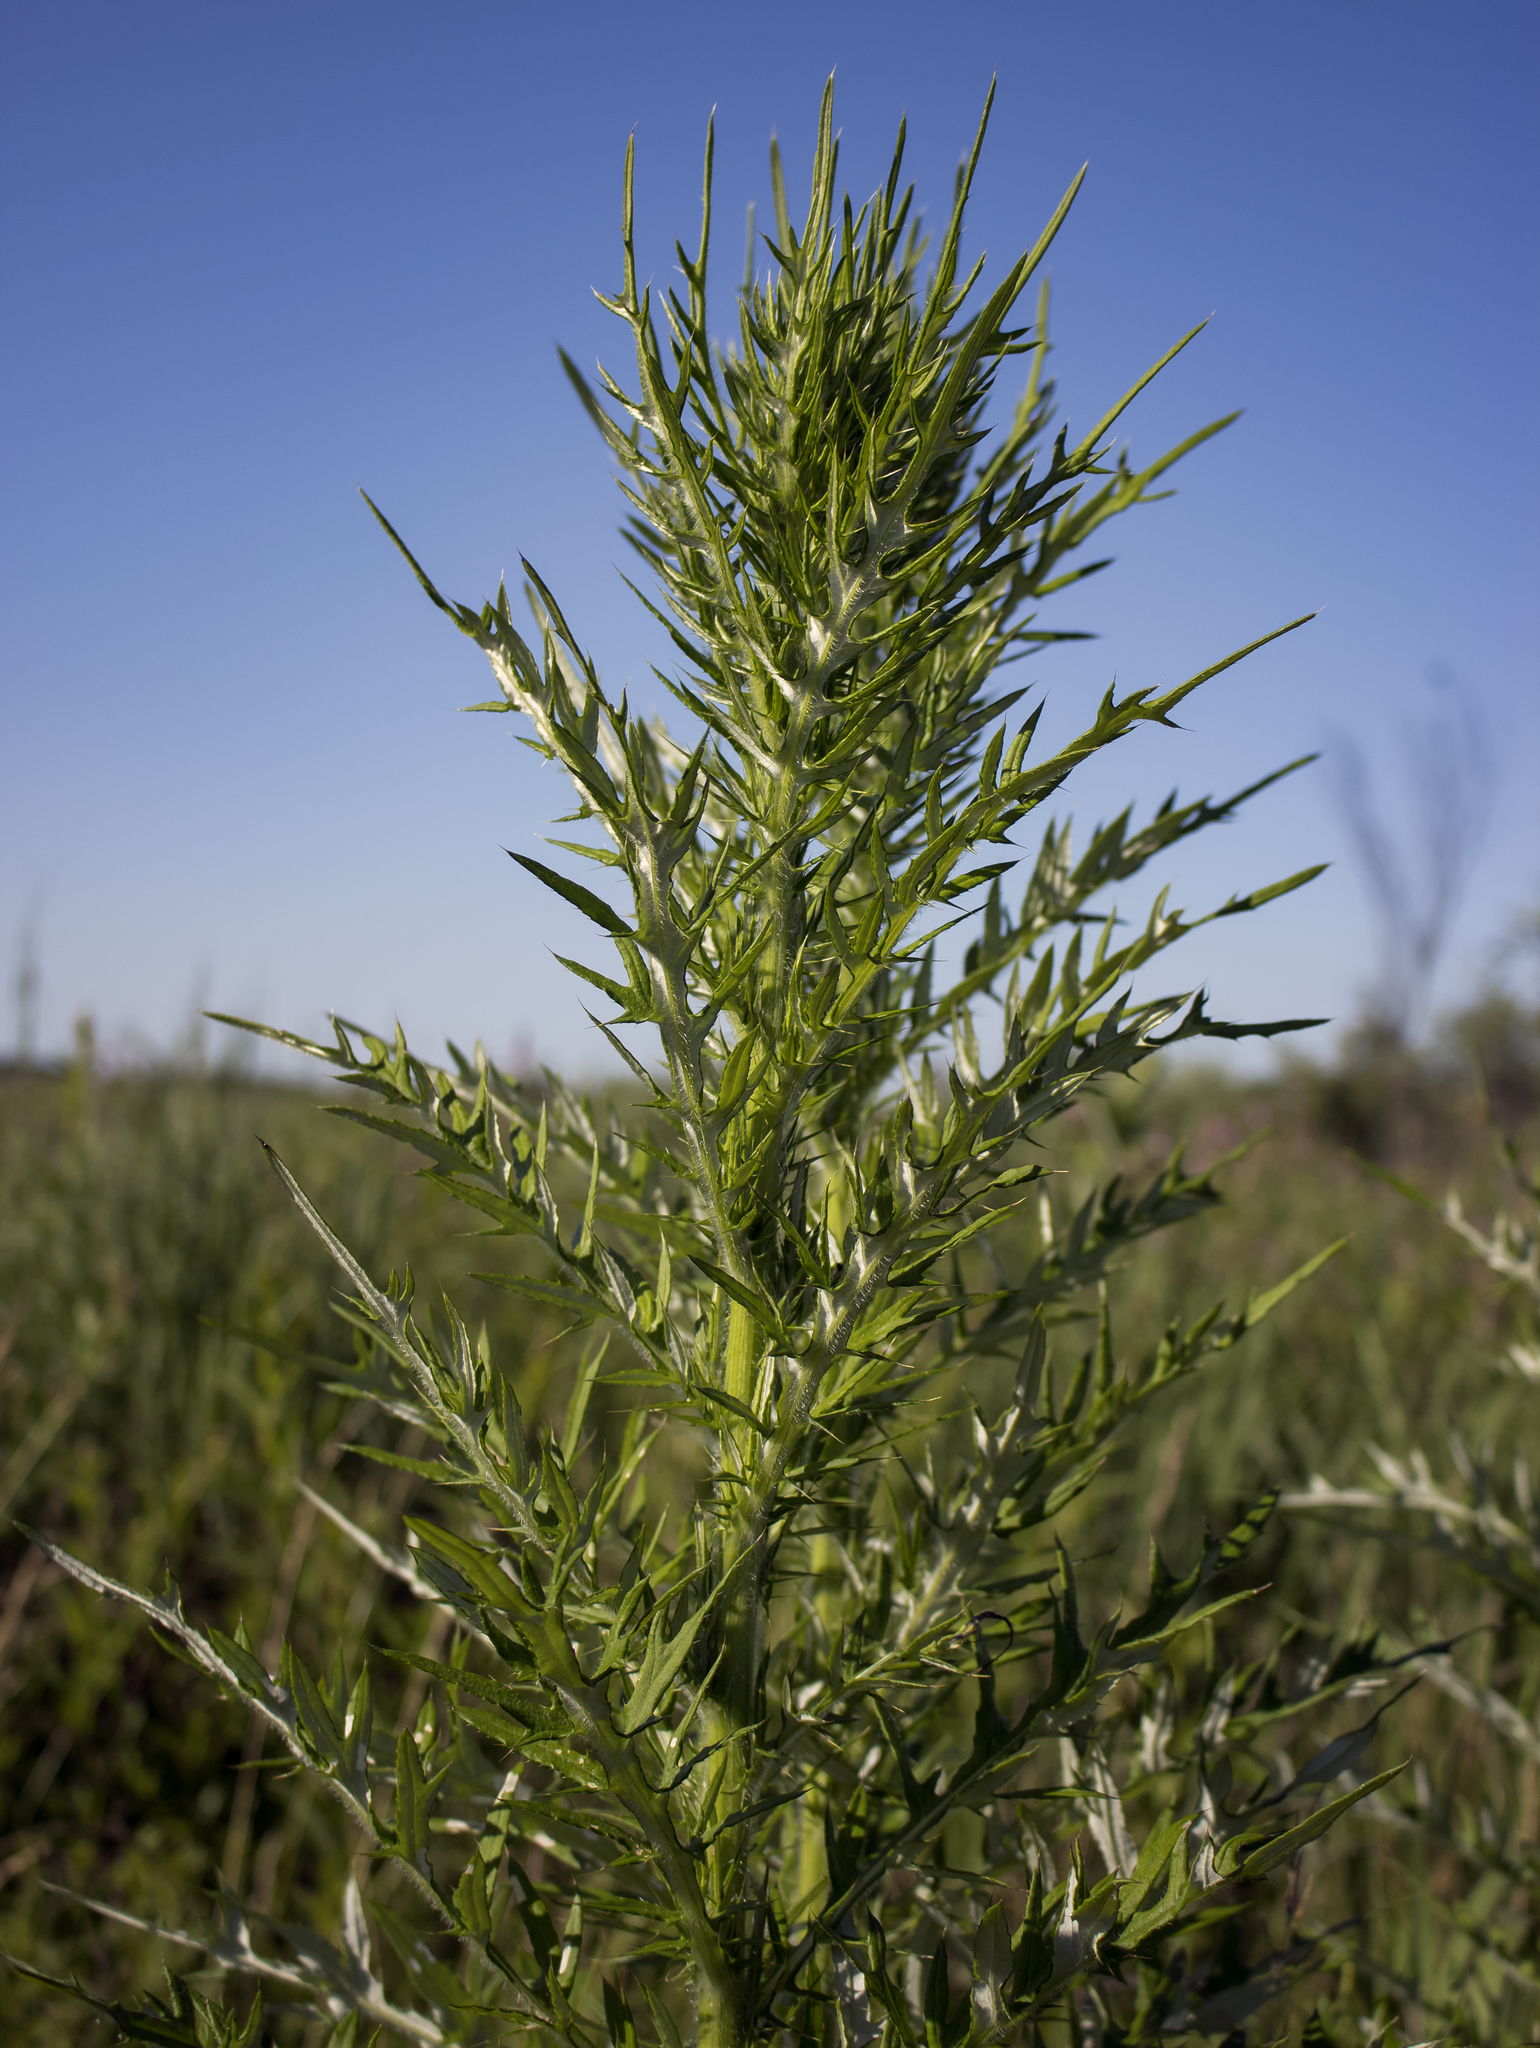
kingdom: Plantae
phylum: Tracheophyta
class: Magnoliopsida
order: Asterales
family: Asteraceae
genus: Cirsium
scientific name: Cirsium discolor
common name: Field thistle
